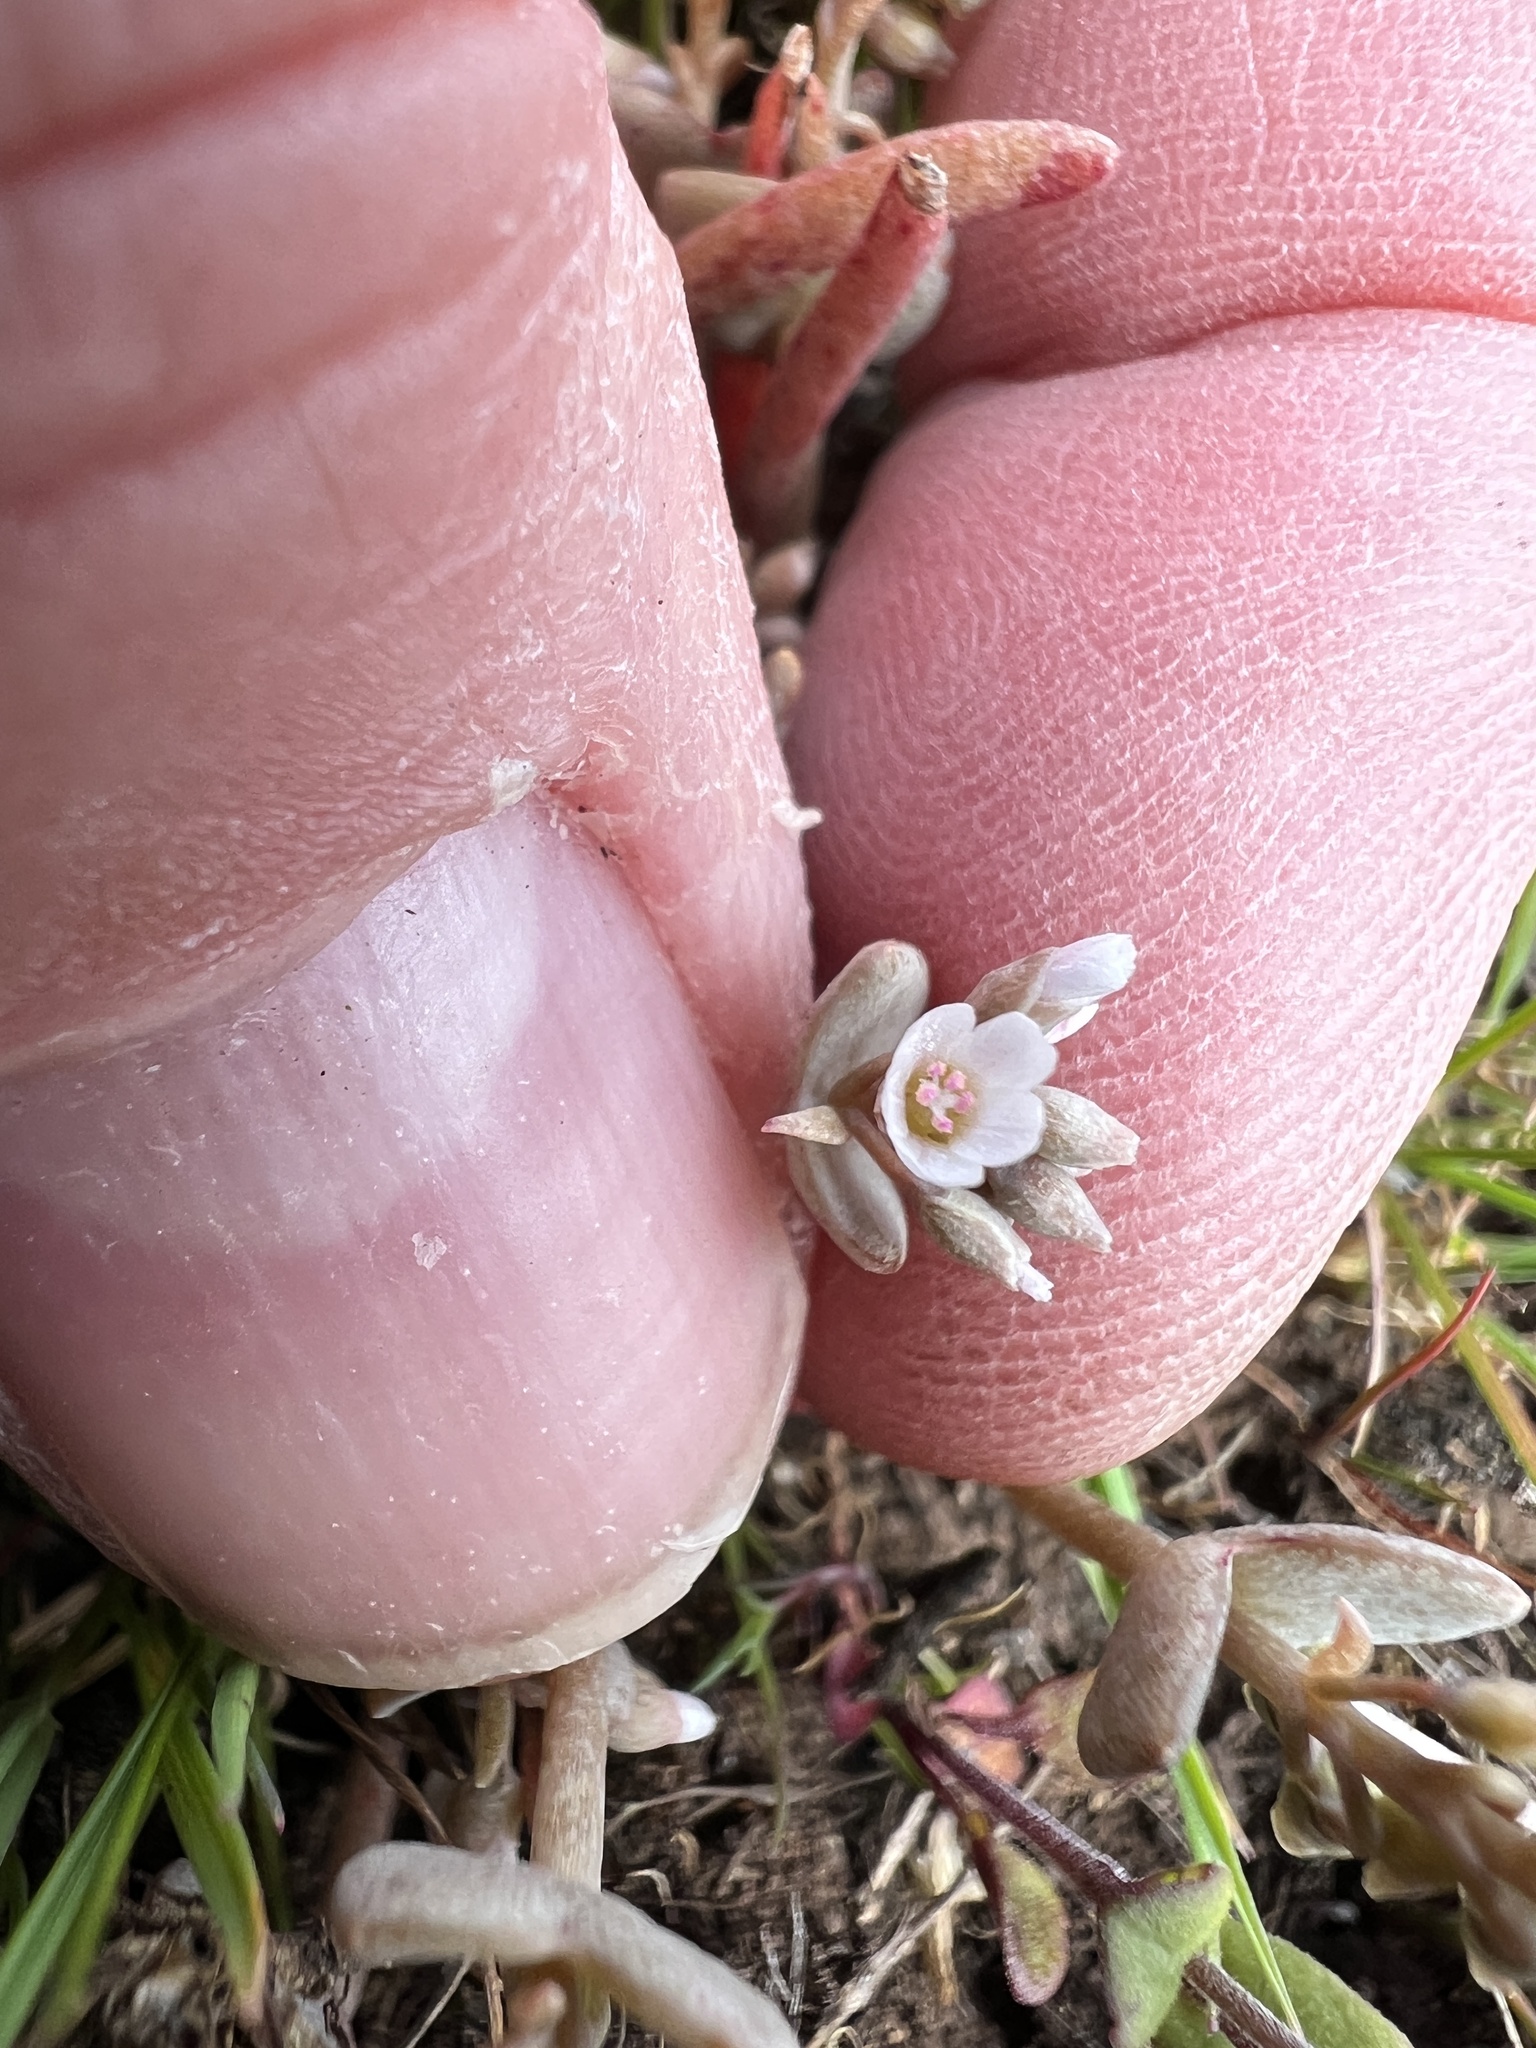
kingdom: Plantae
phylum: Tracheophyta
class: Magnoliopsida
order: Caryophyllales
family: Montiaceae
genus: Claytonia
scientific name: Claytonia exigua
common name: Pale spring beauty
